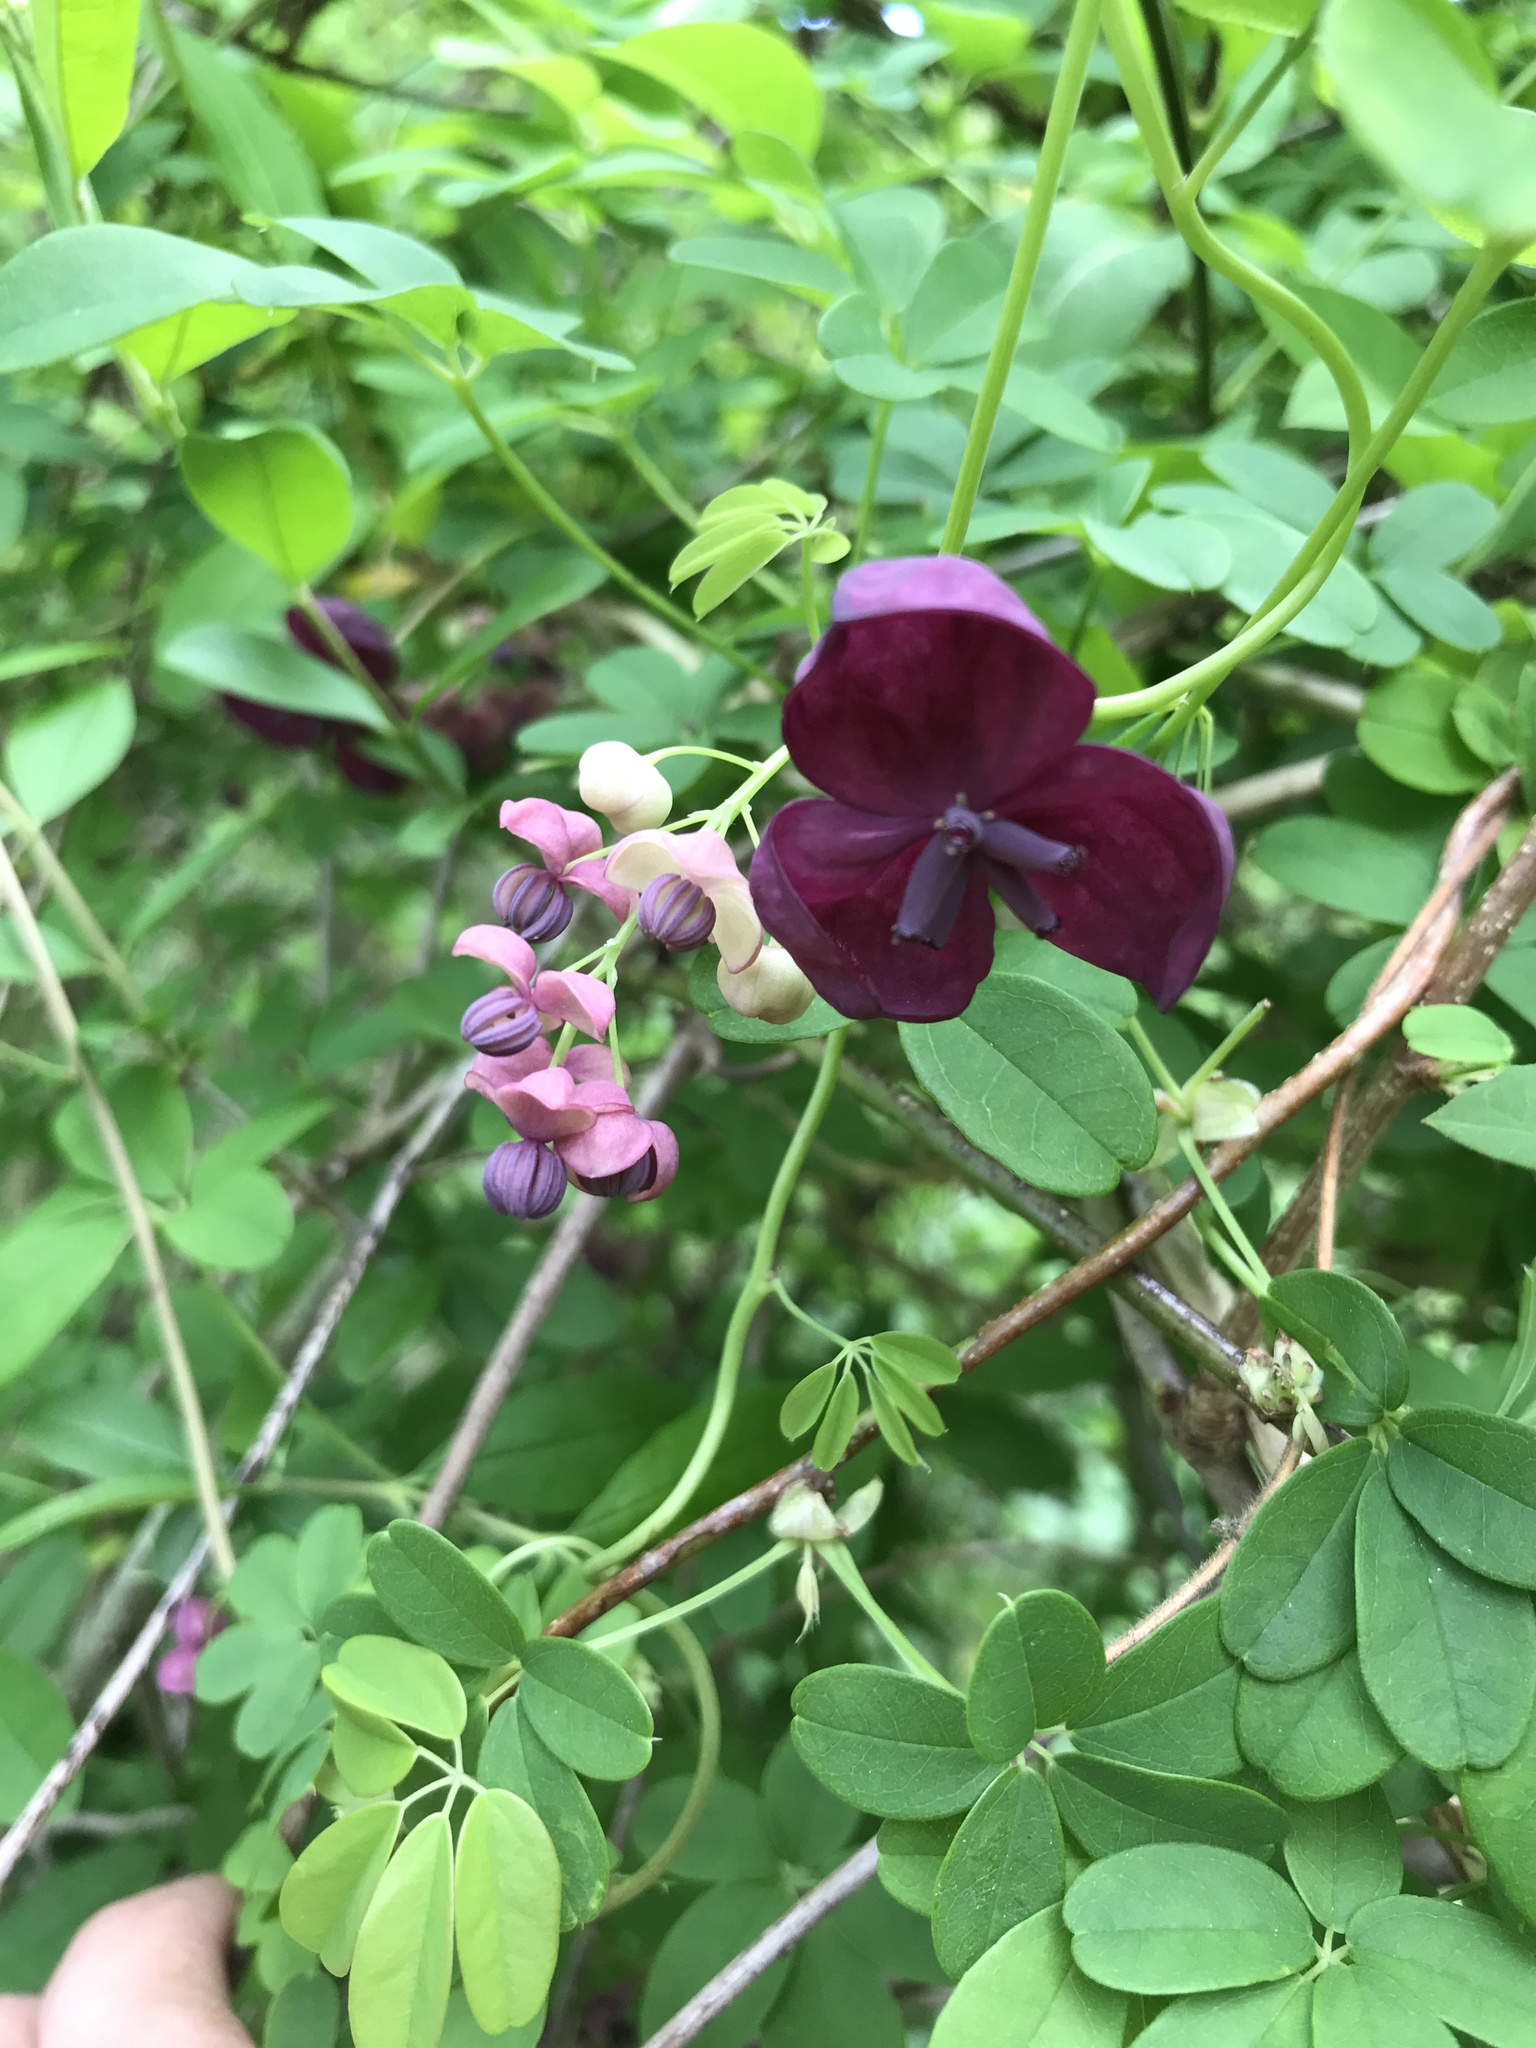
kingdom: Plantae
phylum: Tracheophyta
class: Magnoliopsida
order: Ranunculales
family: Lardizabalaceae
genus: Akebia
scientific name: Akebia quinata
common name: Five-leaf akebia
